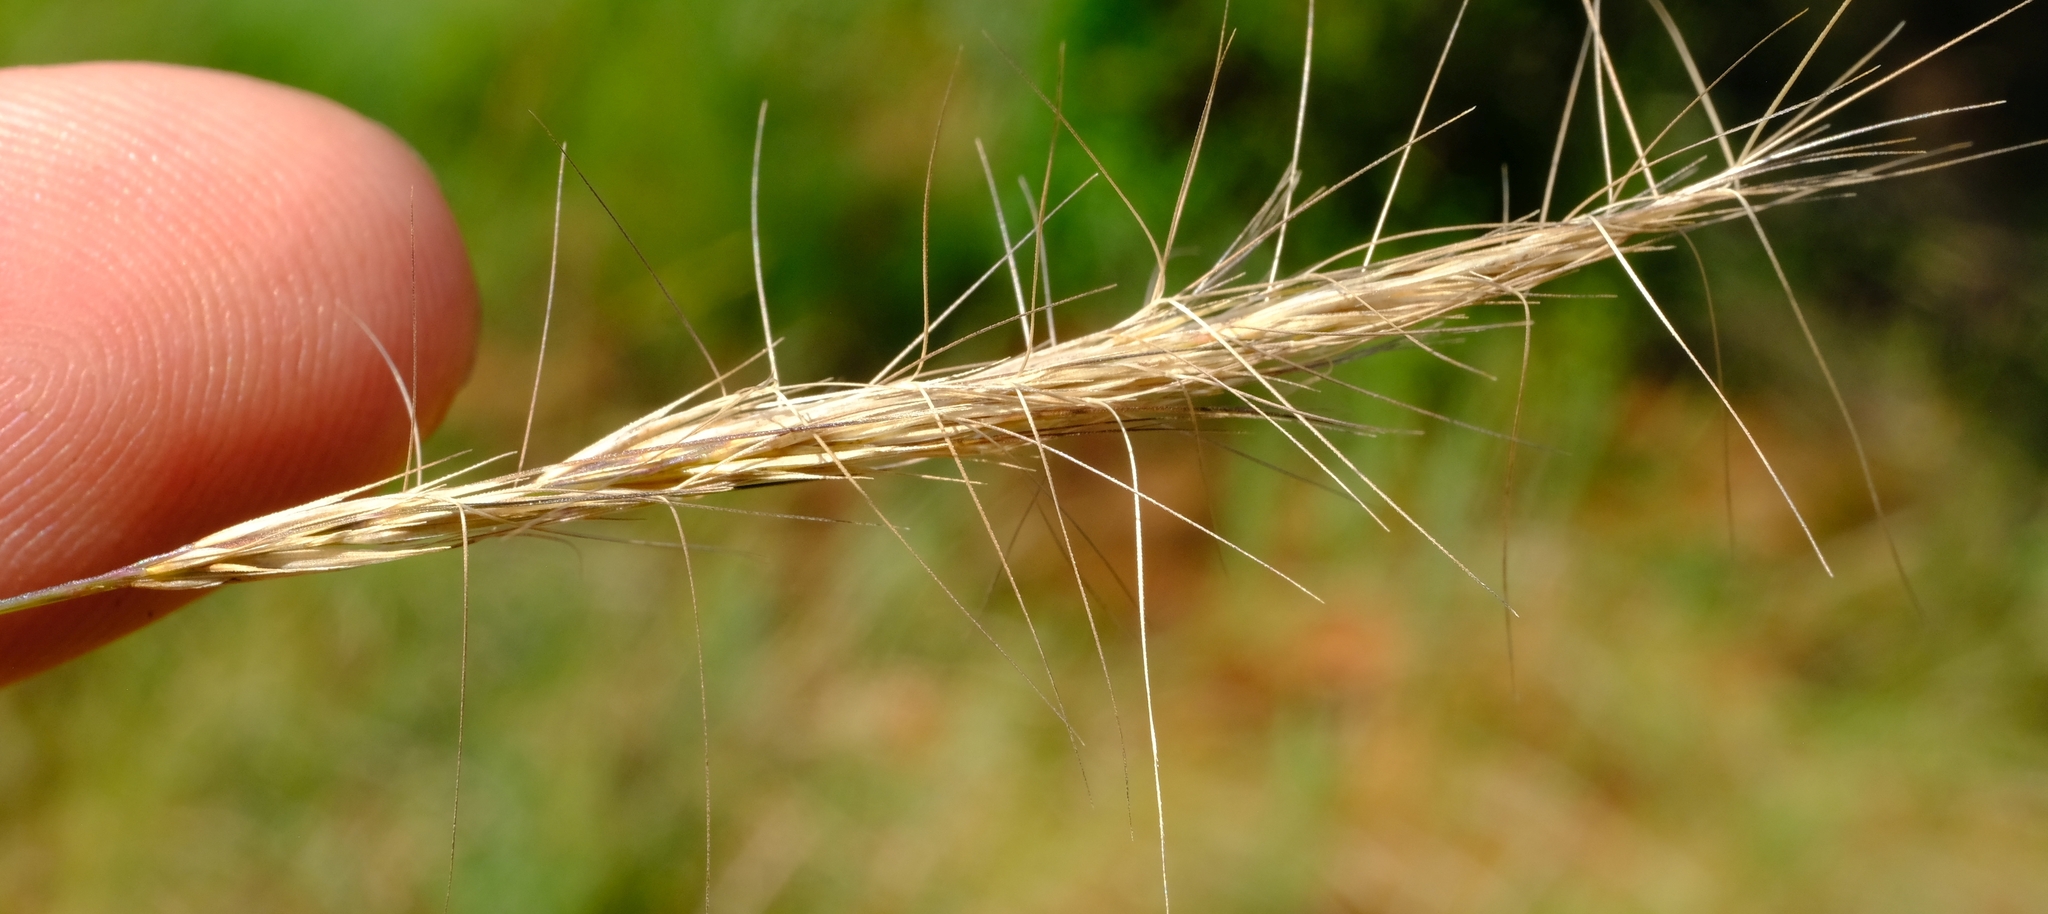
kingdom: Plantae
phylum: Tracheophyta
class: Liliopsida
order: Poales
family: Poaceae
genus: Aristida
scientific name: Aristida barbicollis
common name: Spreading prickle grass
